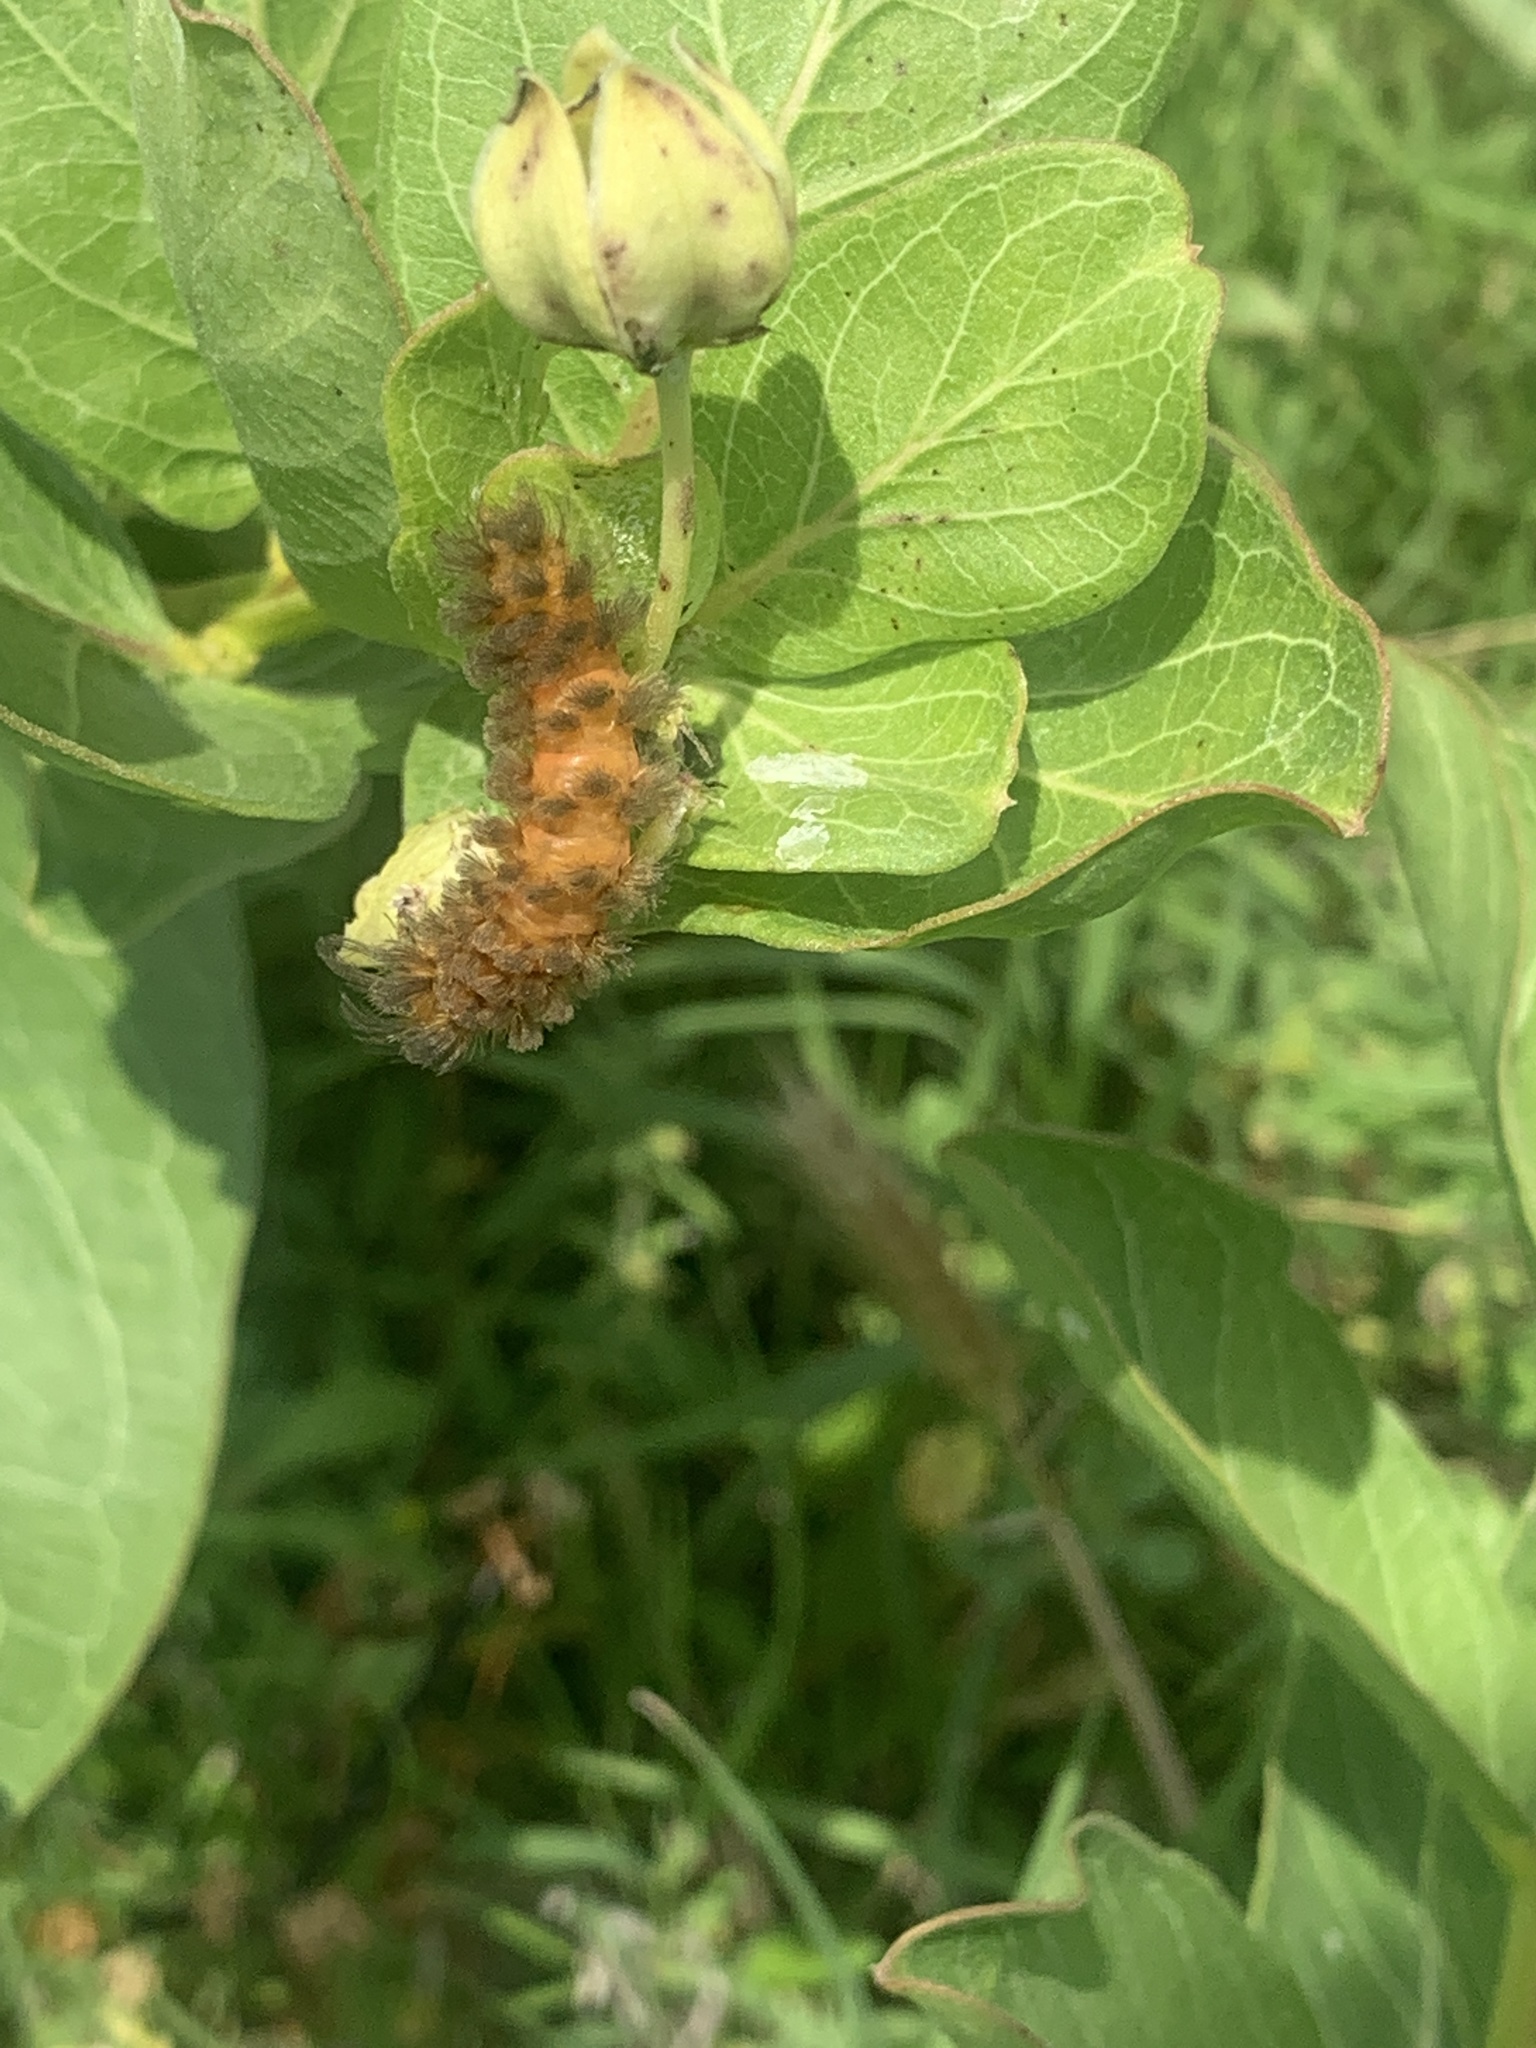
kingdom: Animalia
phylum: Arthropoda
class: Insecta
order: Lepidoptera
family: Erebidae
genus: Cycnia
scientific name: Cycnia collaris
